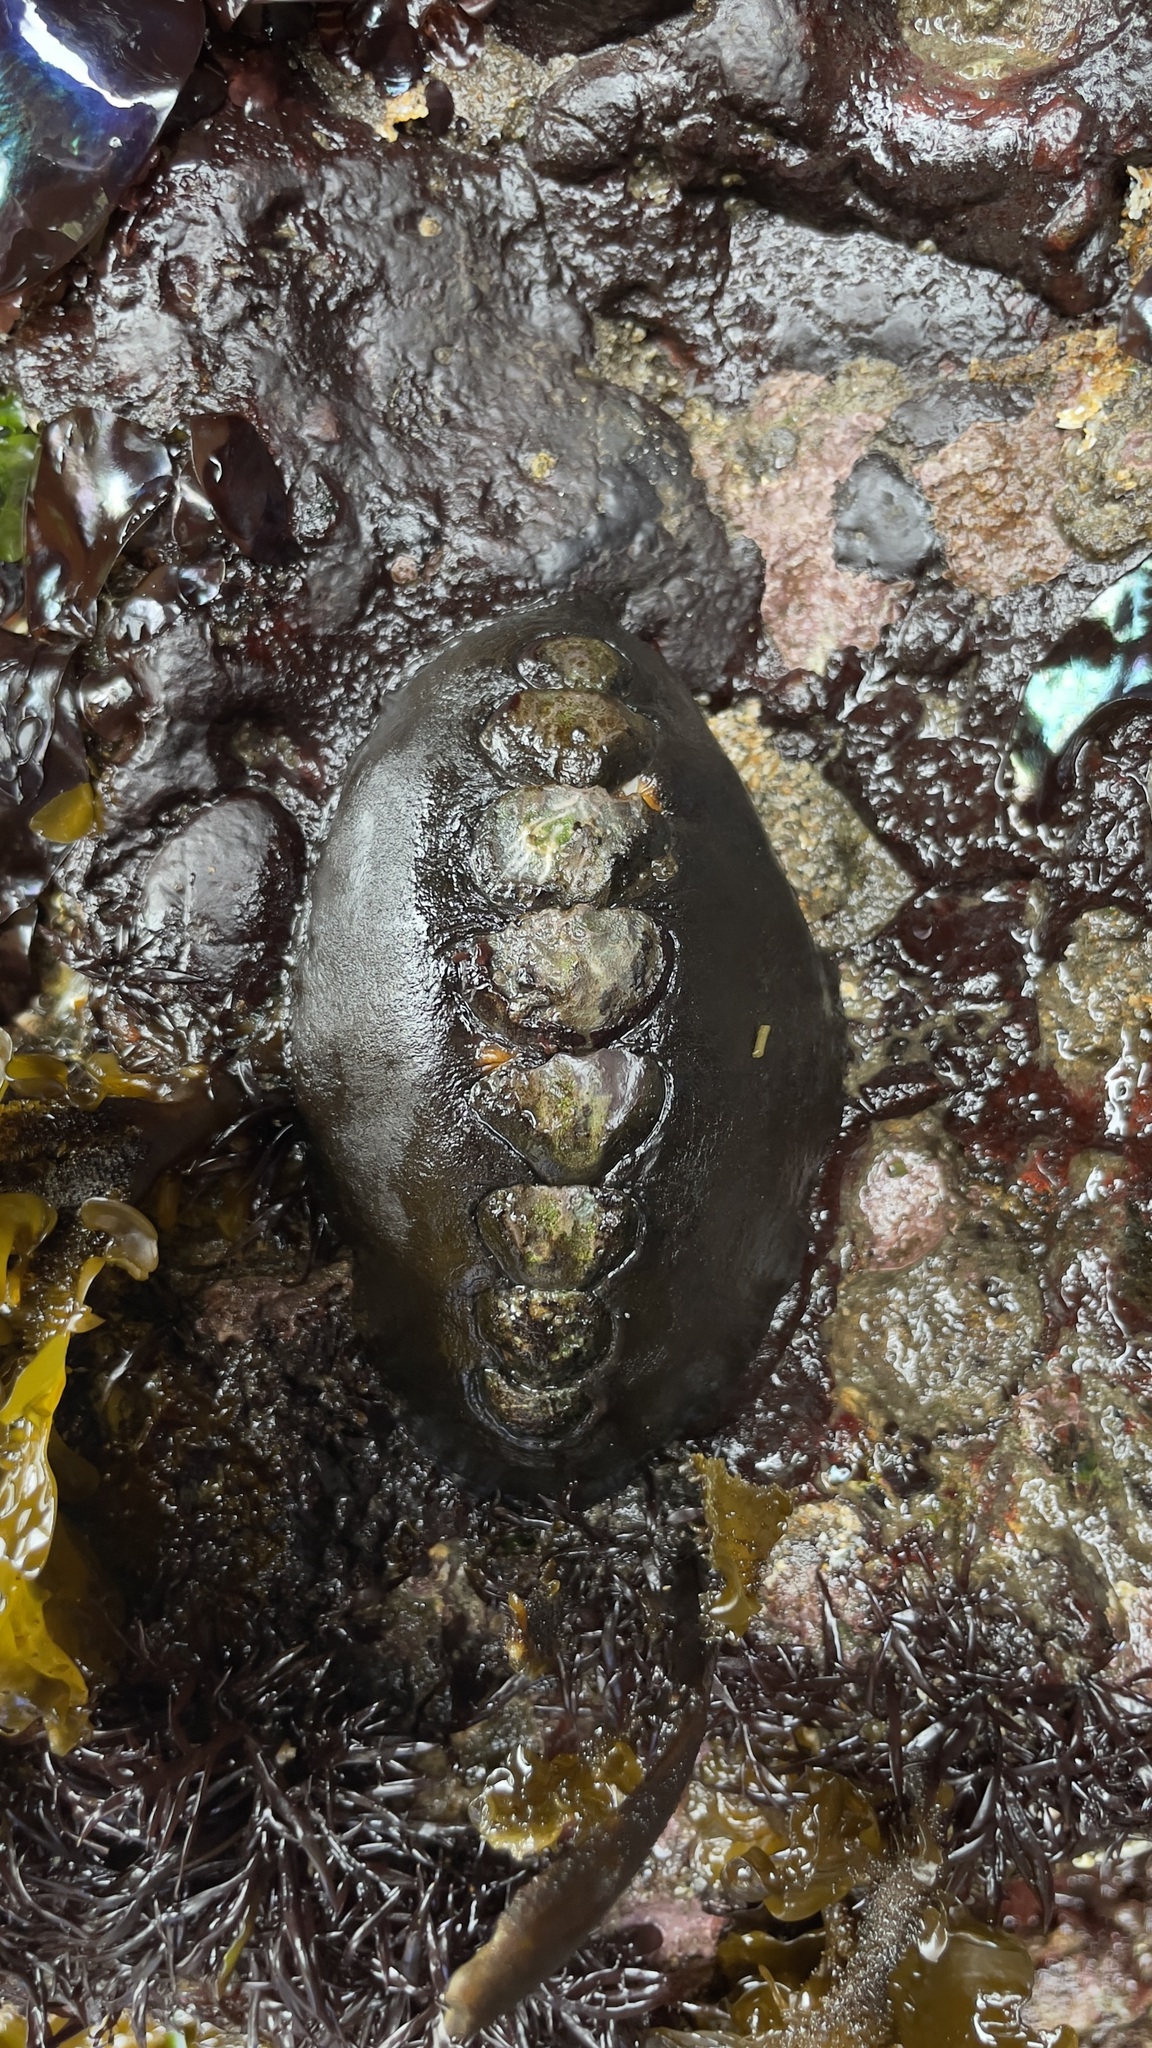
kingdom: Animalia
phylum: Mollusca
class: Polyplacophora
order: Chitonida
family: Mopaliidae
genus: Katharina
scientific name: Katharina tunicata
